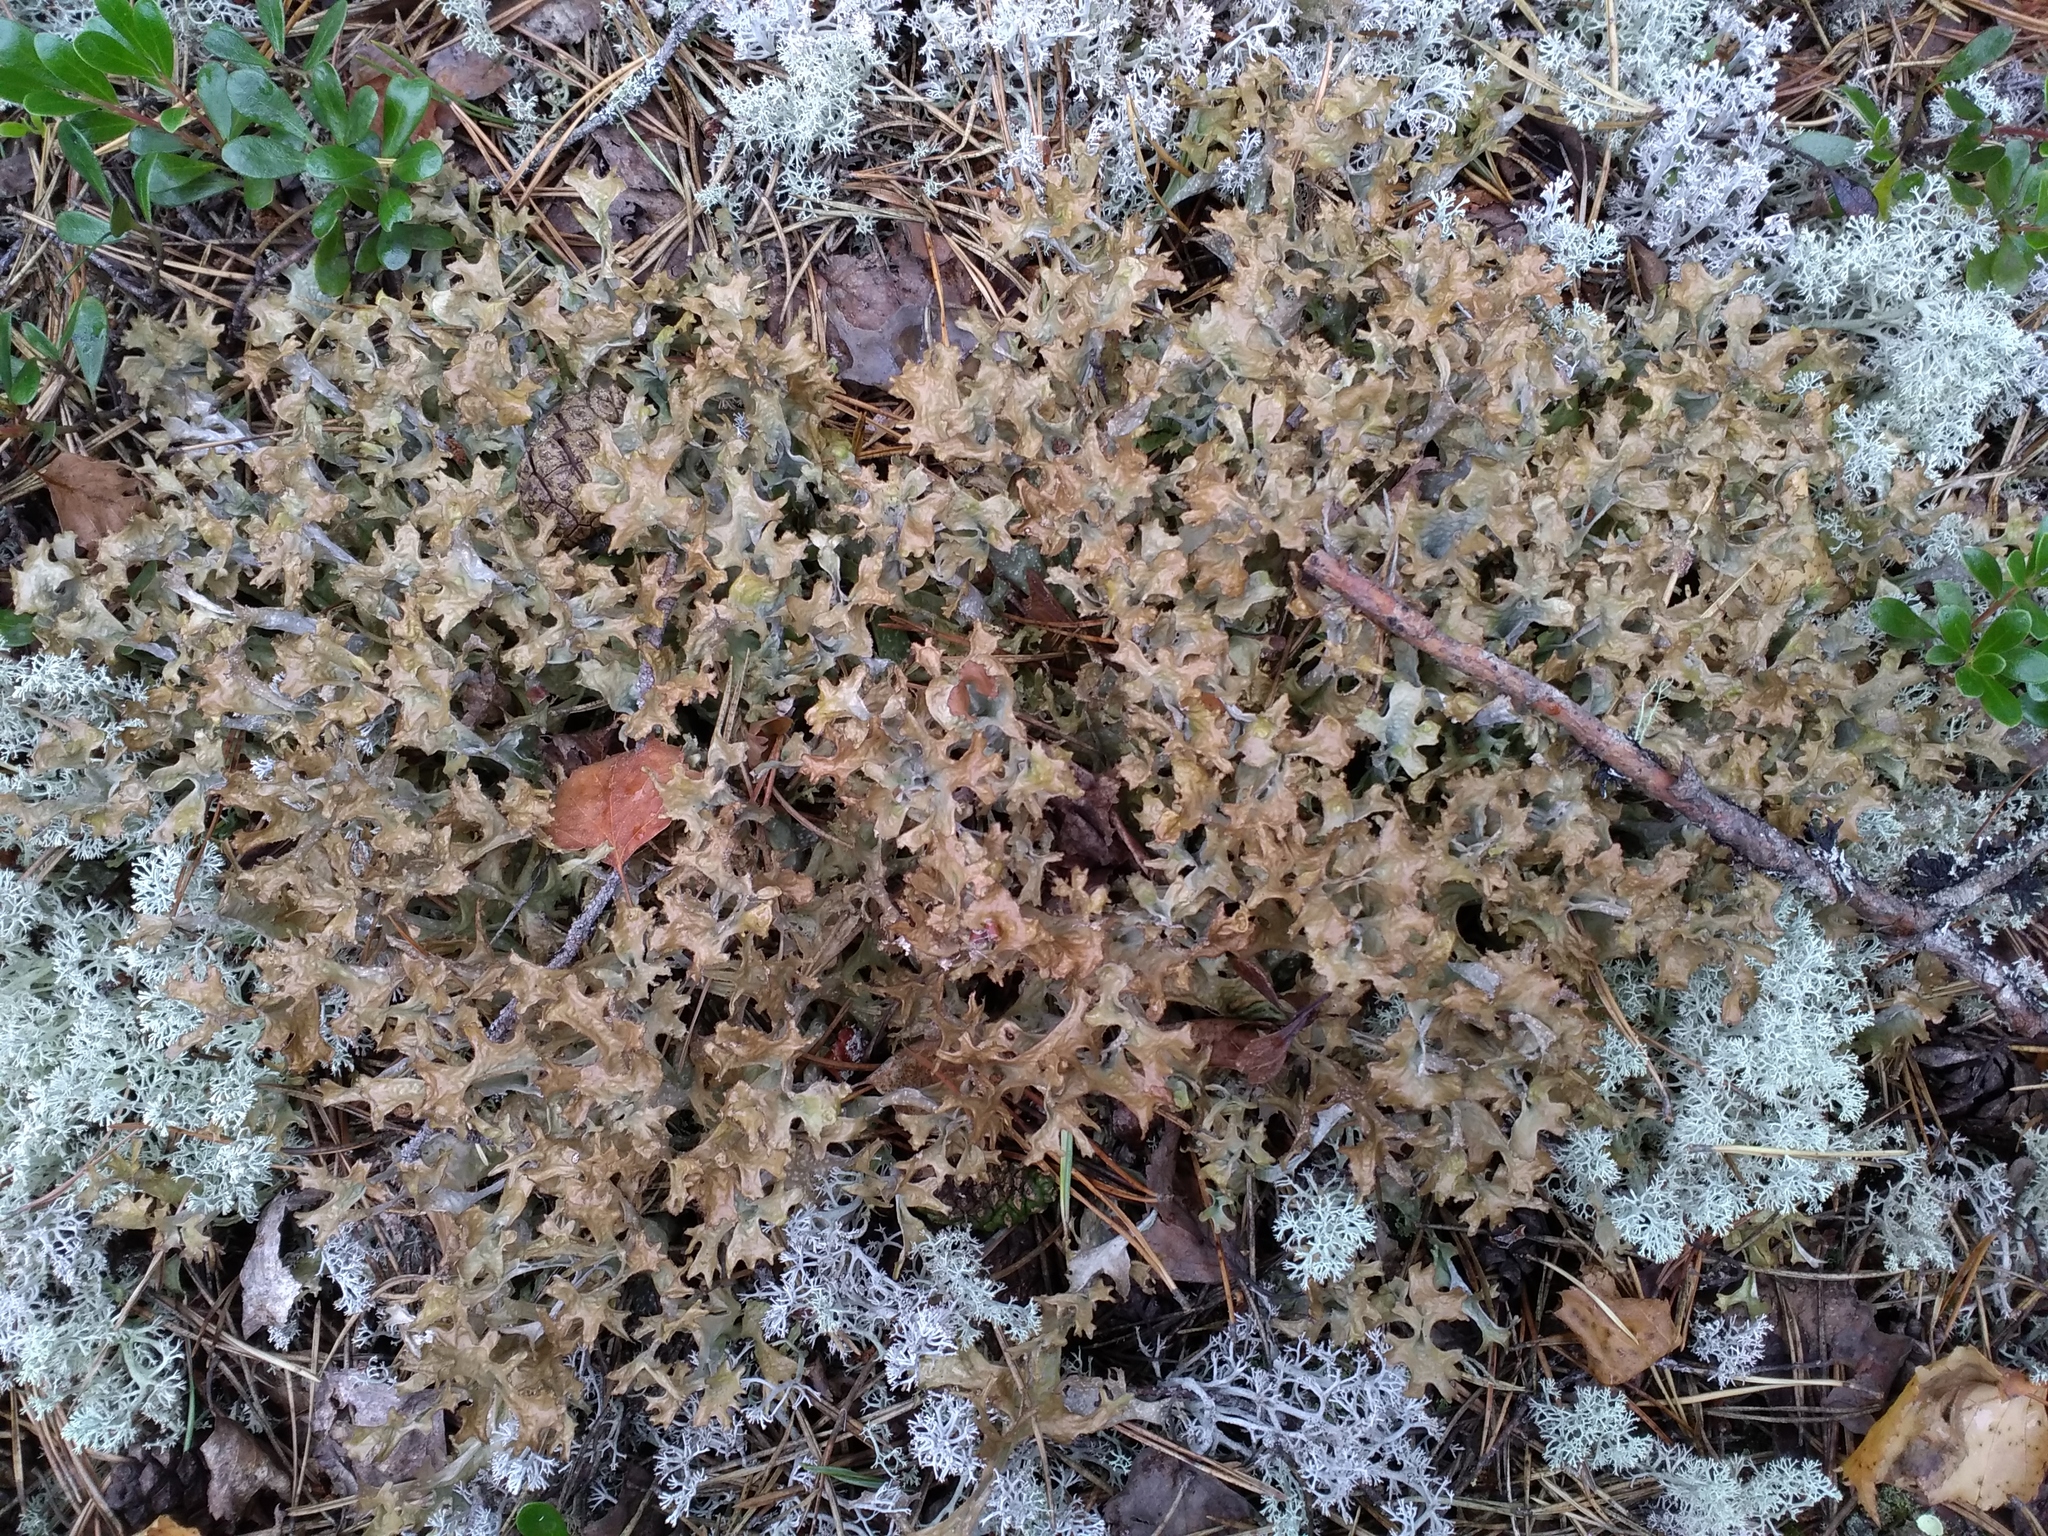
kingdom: Fungi
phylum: Ascomycota
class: Lecanoromycetes
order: Lecanorales
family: Parmeliaceae
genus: Cetraria
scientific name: Cetraria islandica
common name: Iceland lichen
